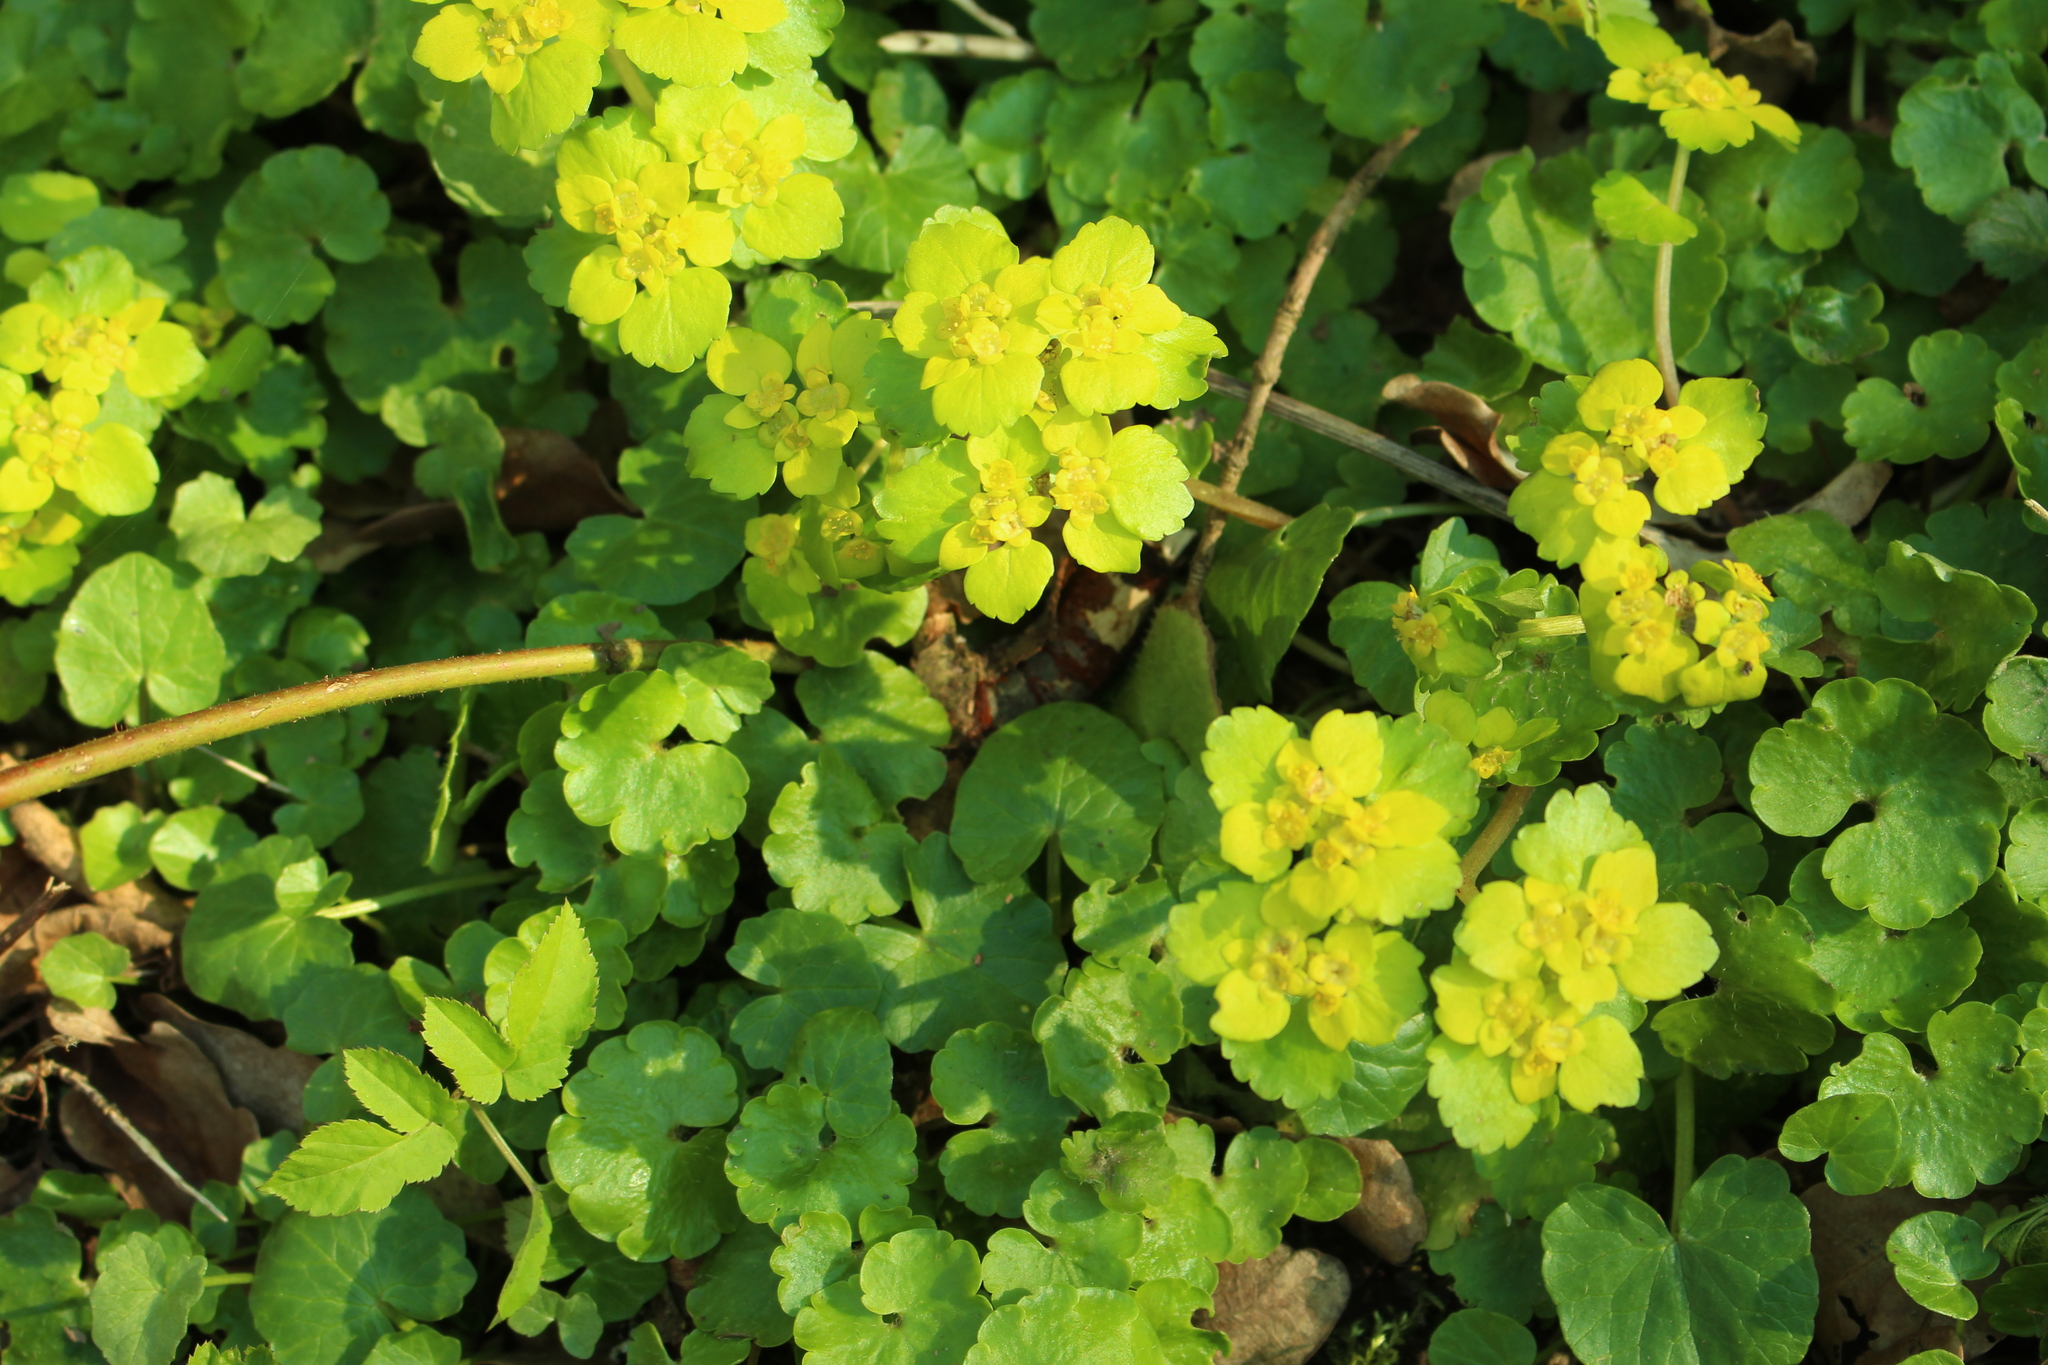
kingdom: Plantae
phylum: Tracheophyta
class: Magnoliopsida
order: Saxifragales
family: Saxifragaceae
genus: Chrysosplenium
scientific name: Chrysosplenium alternifolium
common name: Alternate-leaved golden-saxifrage
